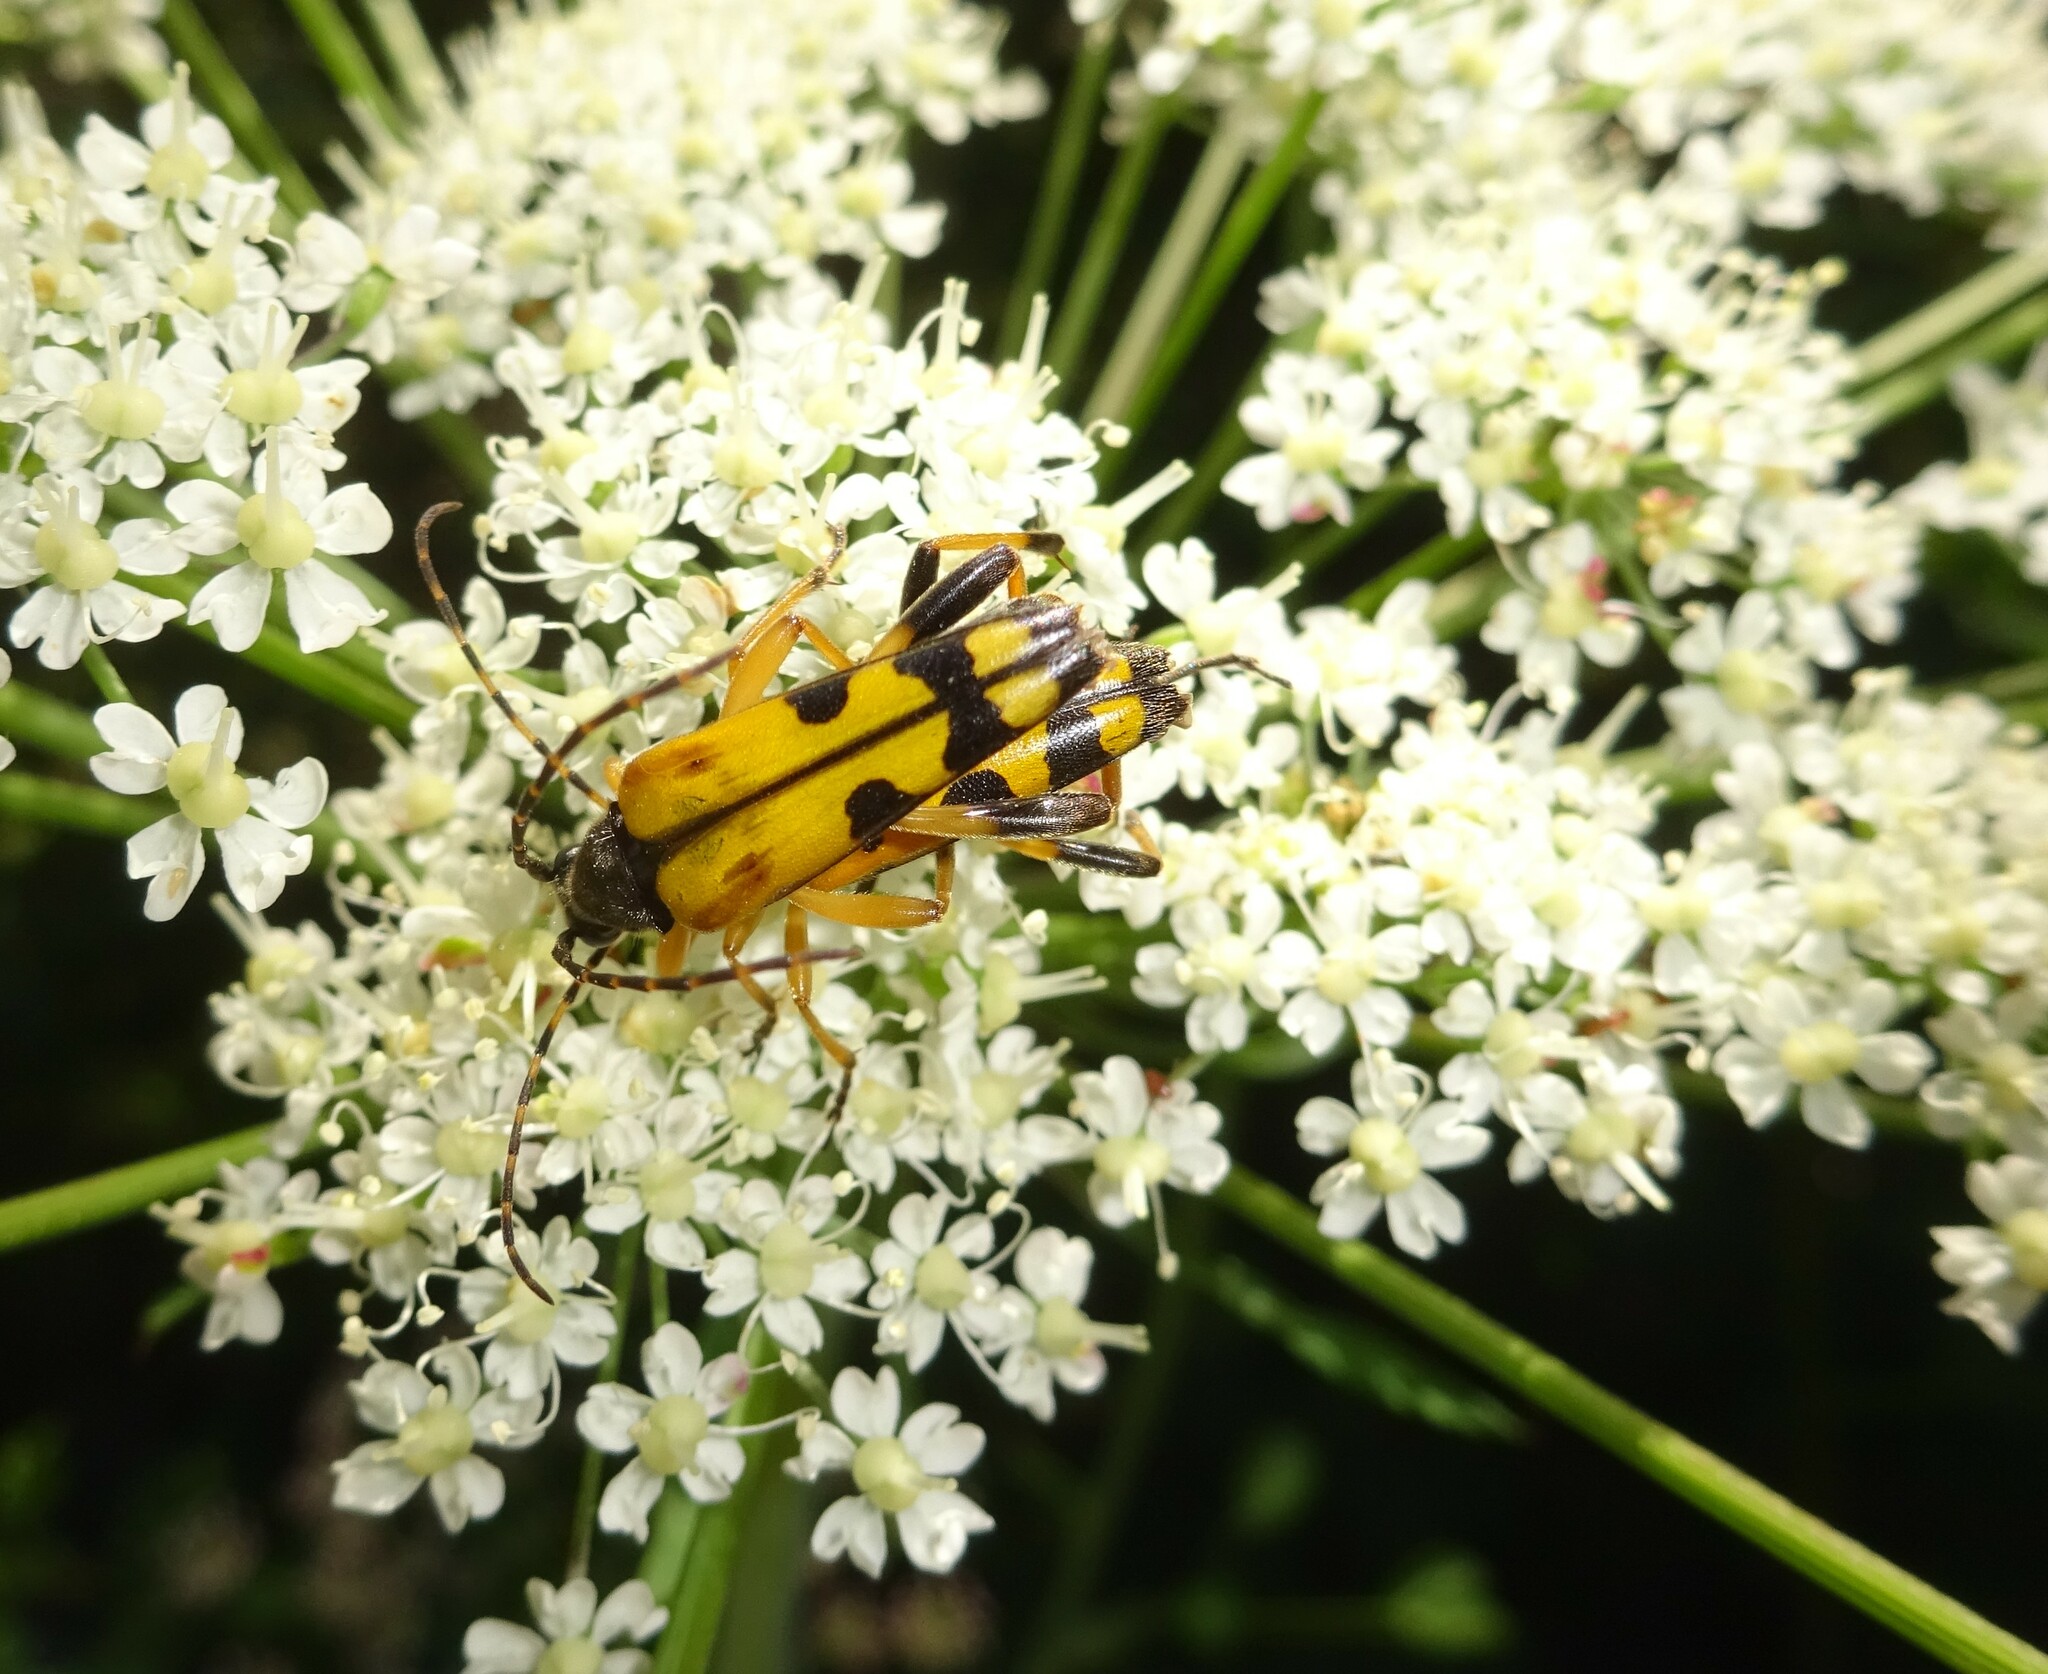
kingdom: Animalia
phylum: Arthropoda
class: Insecta
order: Coleoptera
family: Cerambycidae
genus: Rutpela
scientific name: Rutpela maculata
